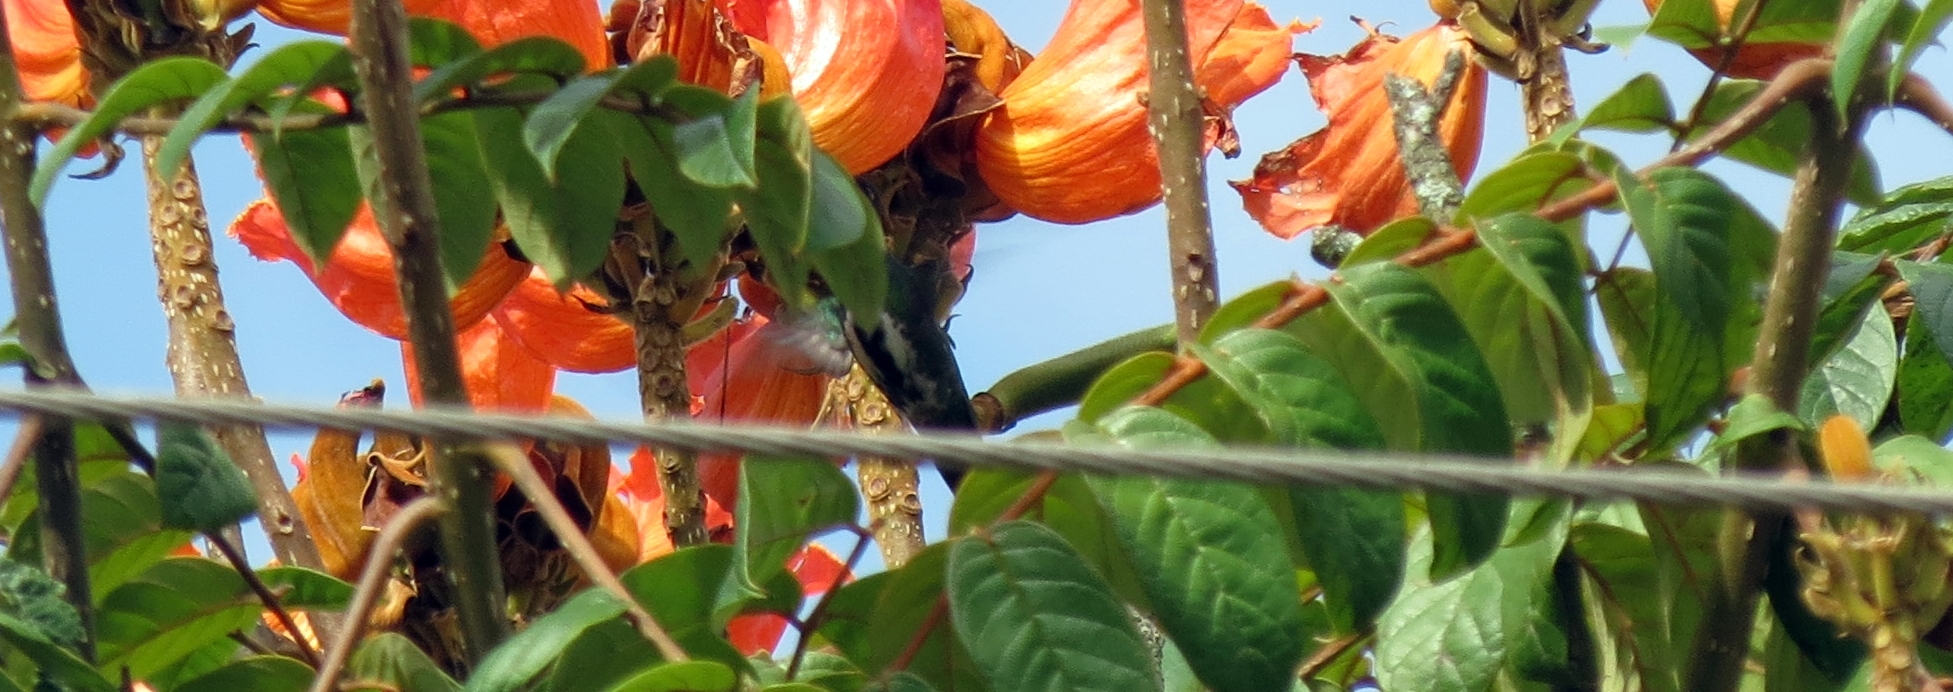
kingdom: Animalia
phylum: Chordata
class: Aves
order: Apodiformes
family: Trochilidae
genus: Anthracothorax
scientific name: Anthracothorax nigricollis
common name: Black-throated mango
